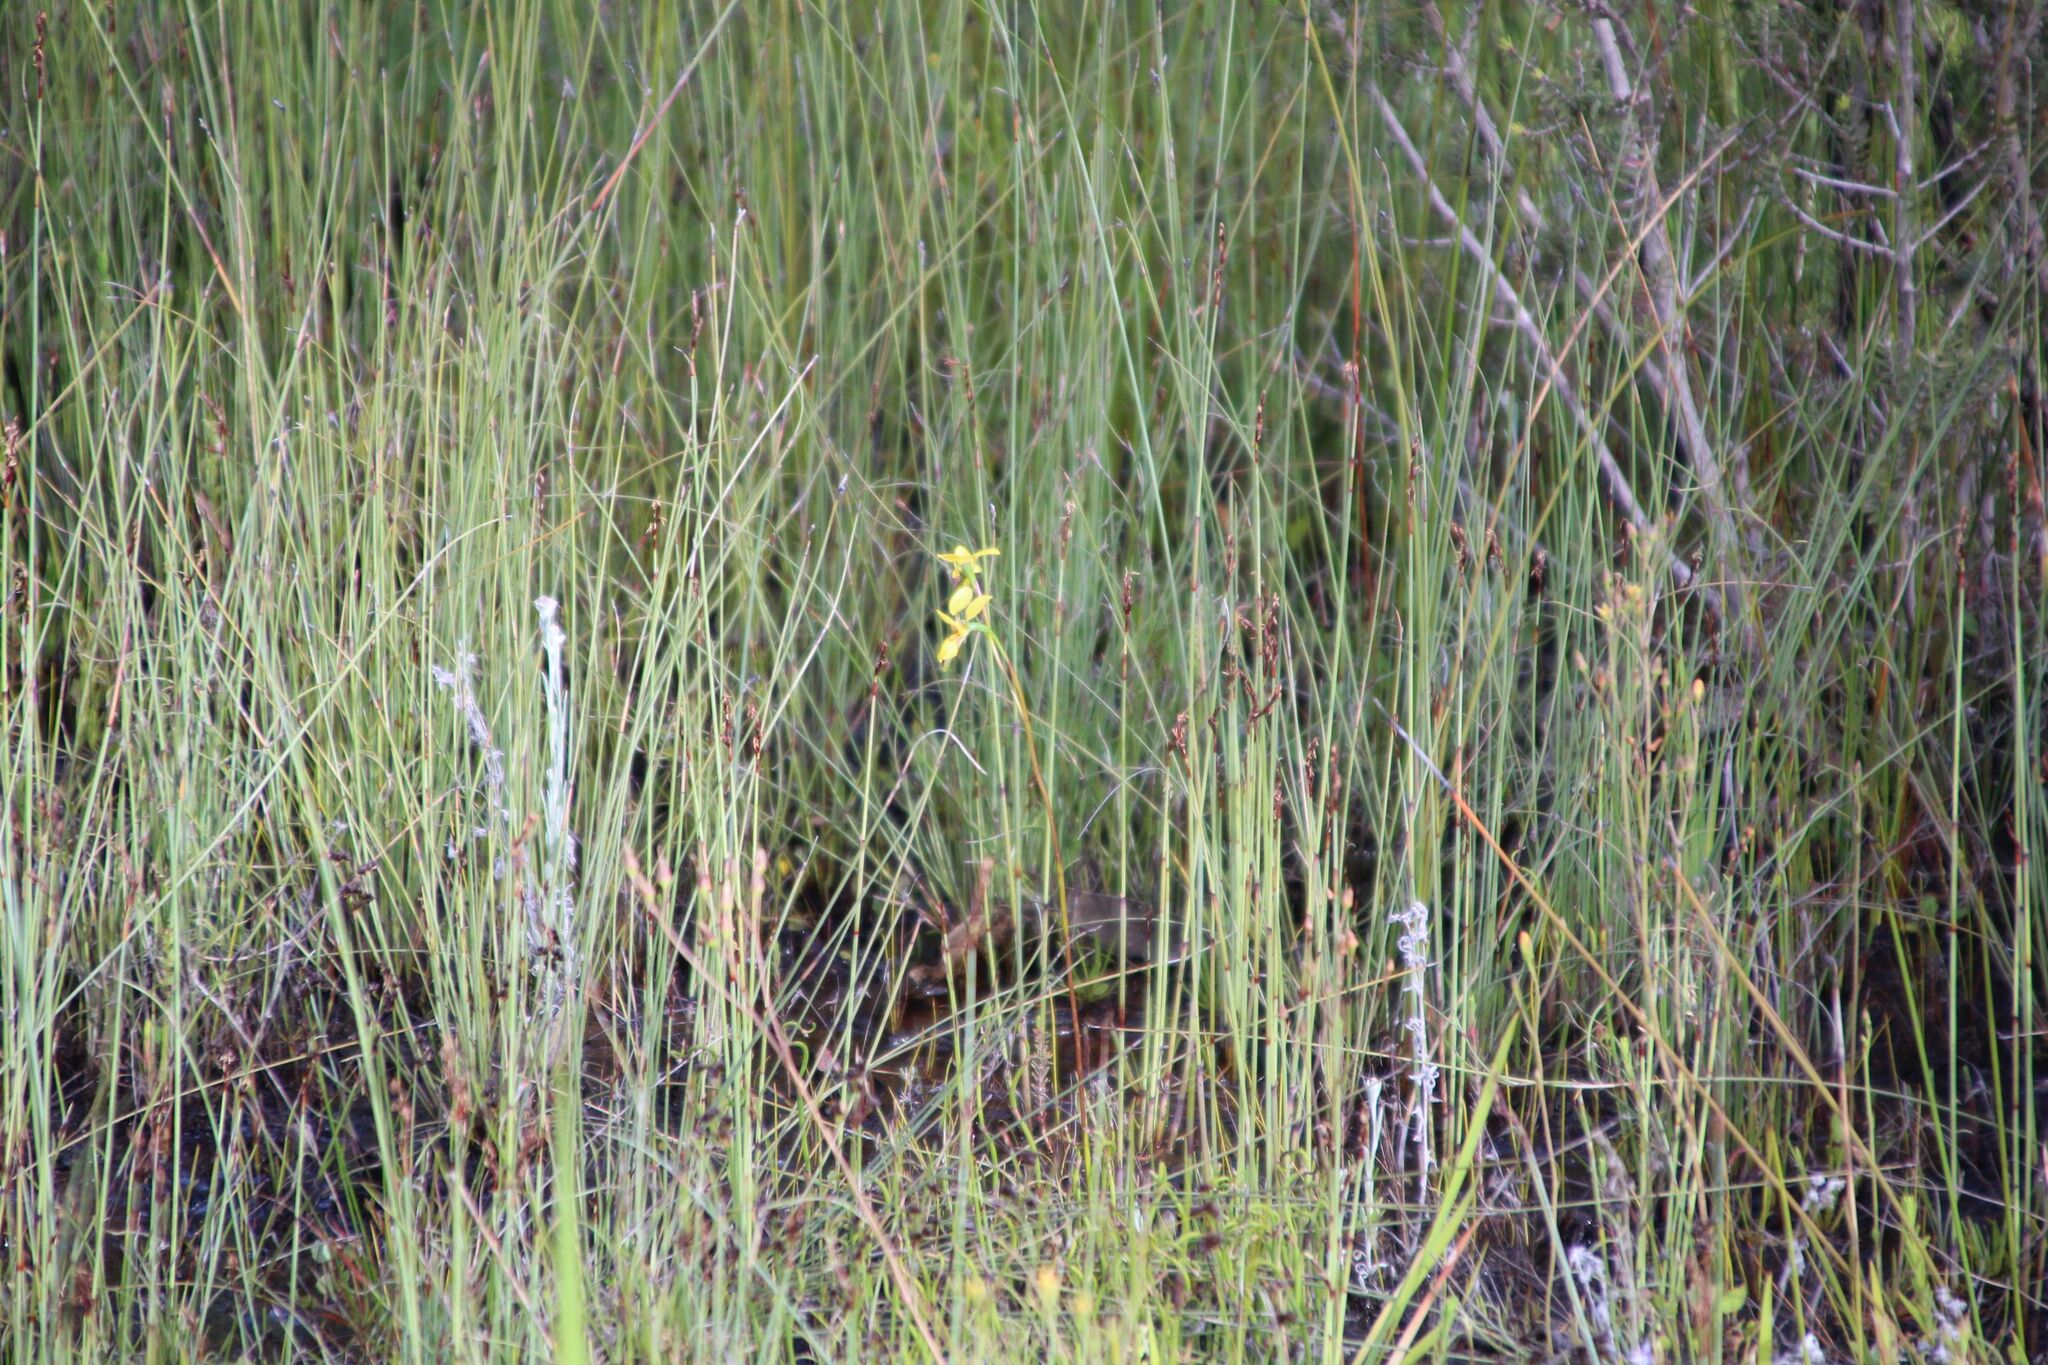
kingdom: Plantae
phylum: Tracheophyta
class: Liliopsida
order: Asparagales
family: Orchidaceae
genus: Diuris
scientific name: Diuris emarginata
